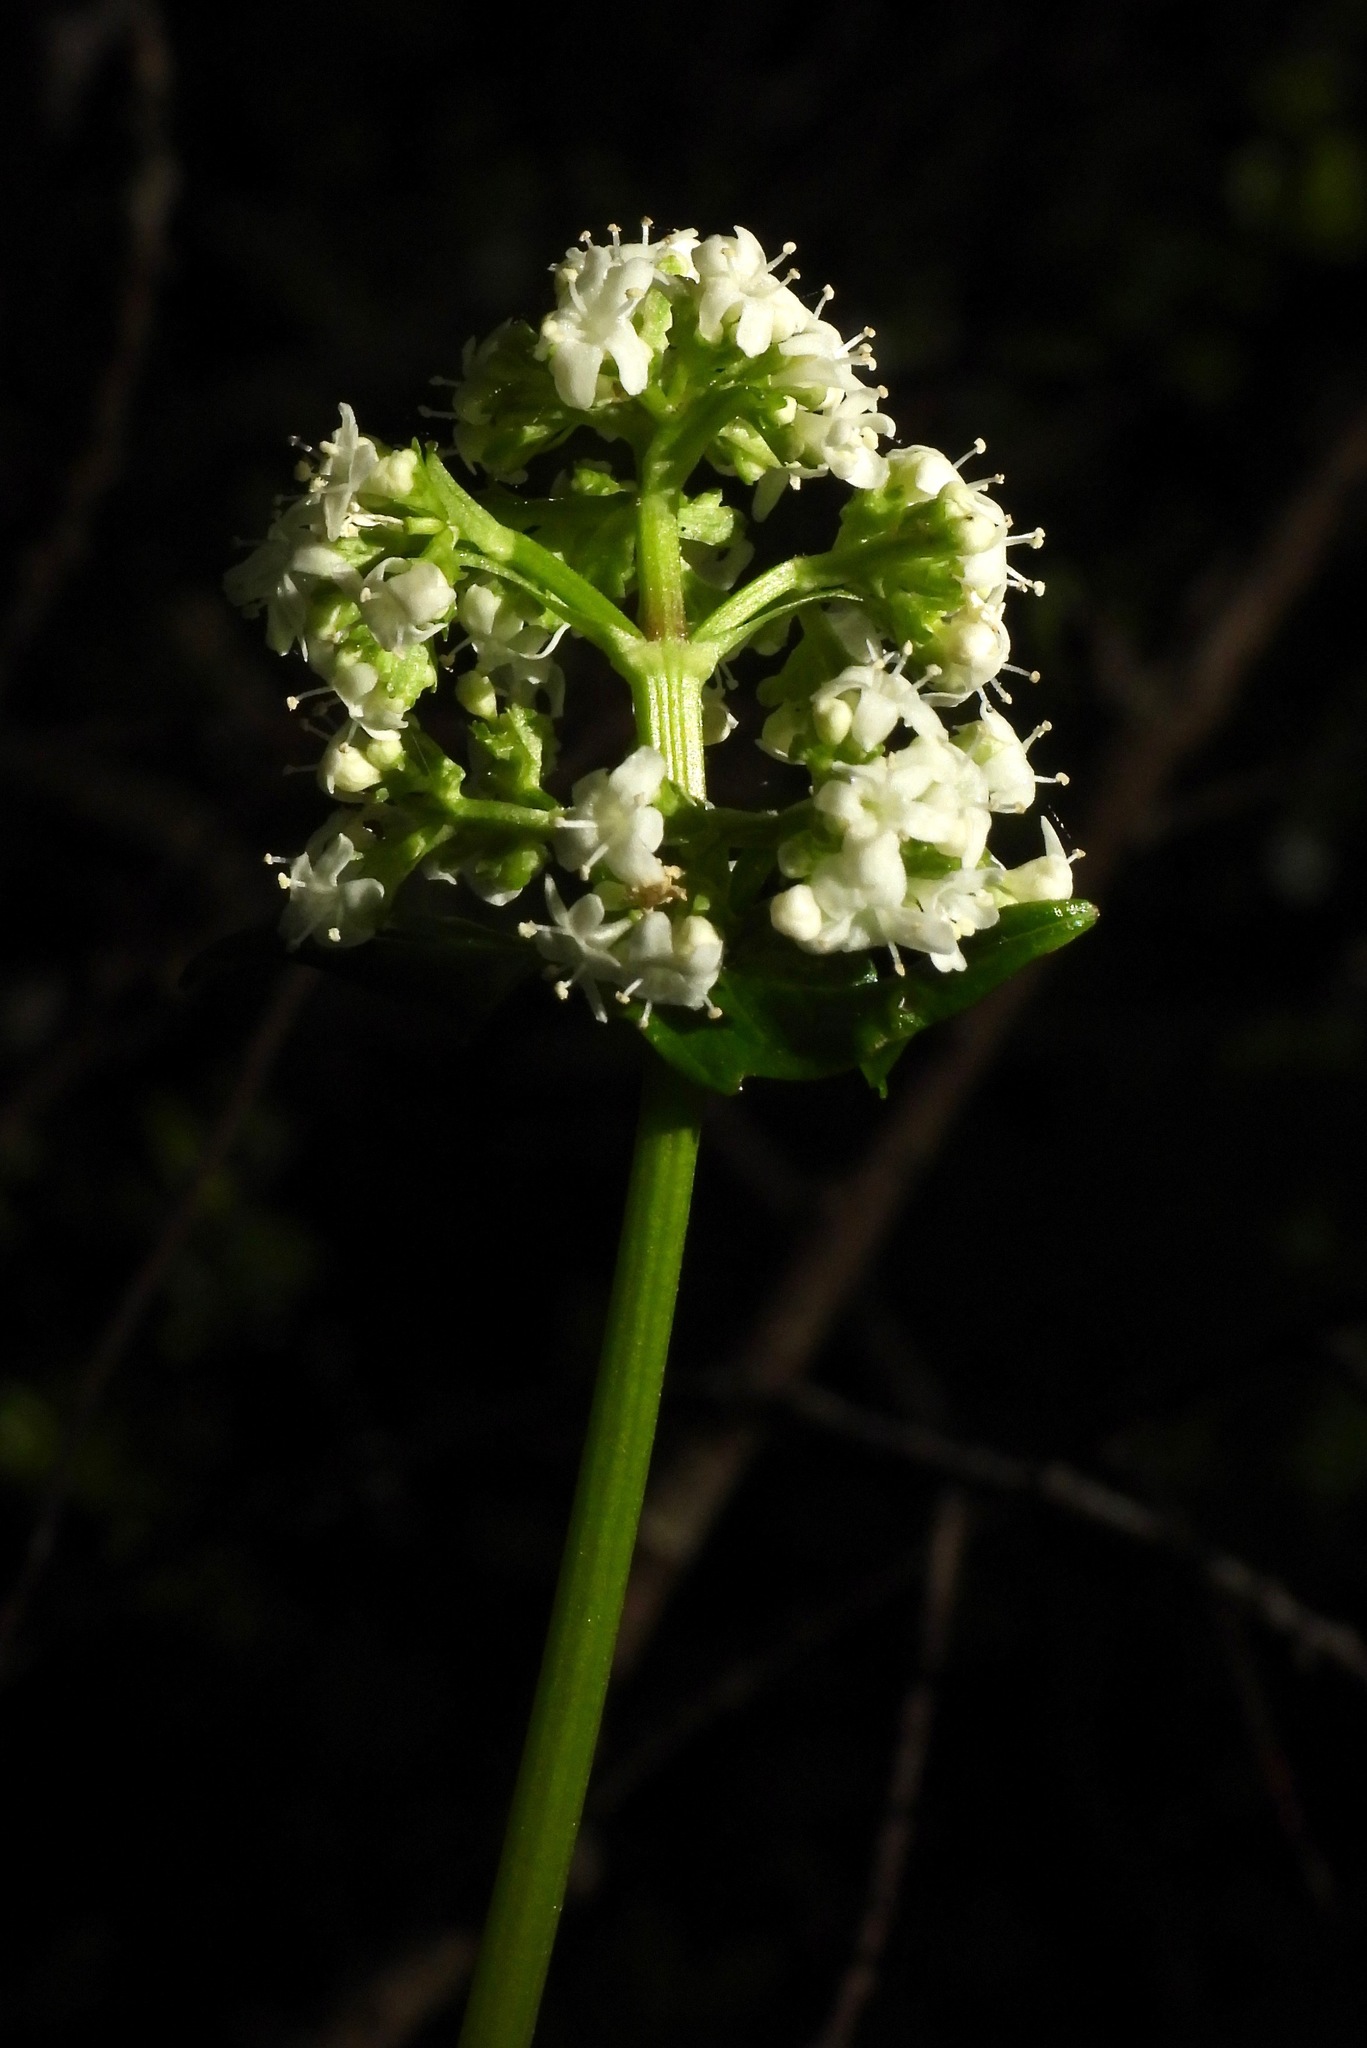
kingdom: Plantae
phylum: Tracheophyta
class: Magnoliopsida
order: Dipsacales
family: Caprifoliaceae
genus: Valeriana
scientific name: Valeriana lapathifolia
